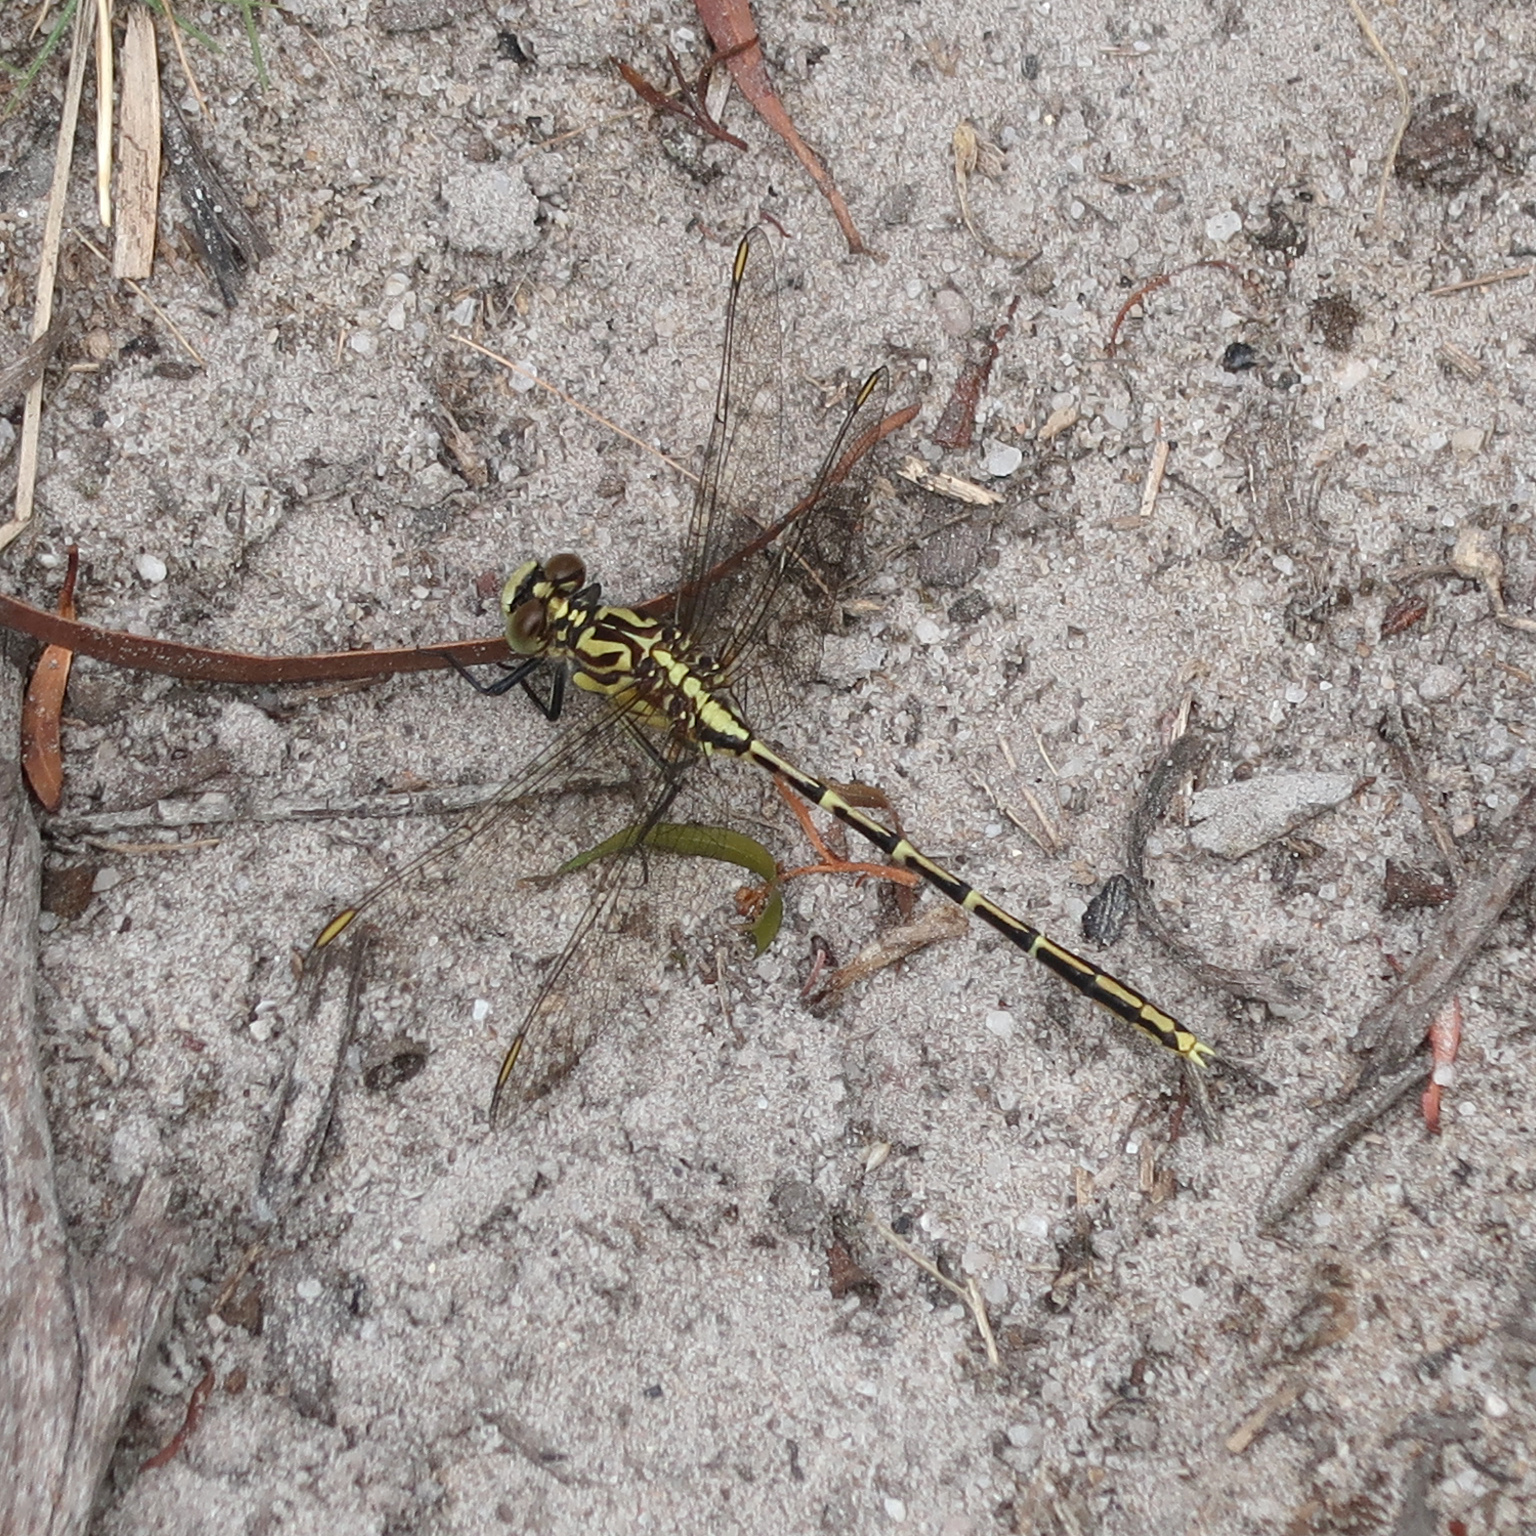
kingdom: Animalia
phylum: Arthropoda
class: Insecta
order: Odonata
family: Gomphidae
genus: Austrogomphus
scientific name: Austrogomphus guerini
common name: Yellow-striped hunter
